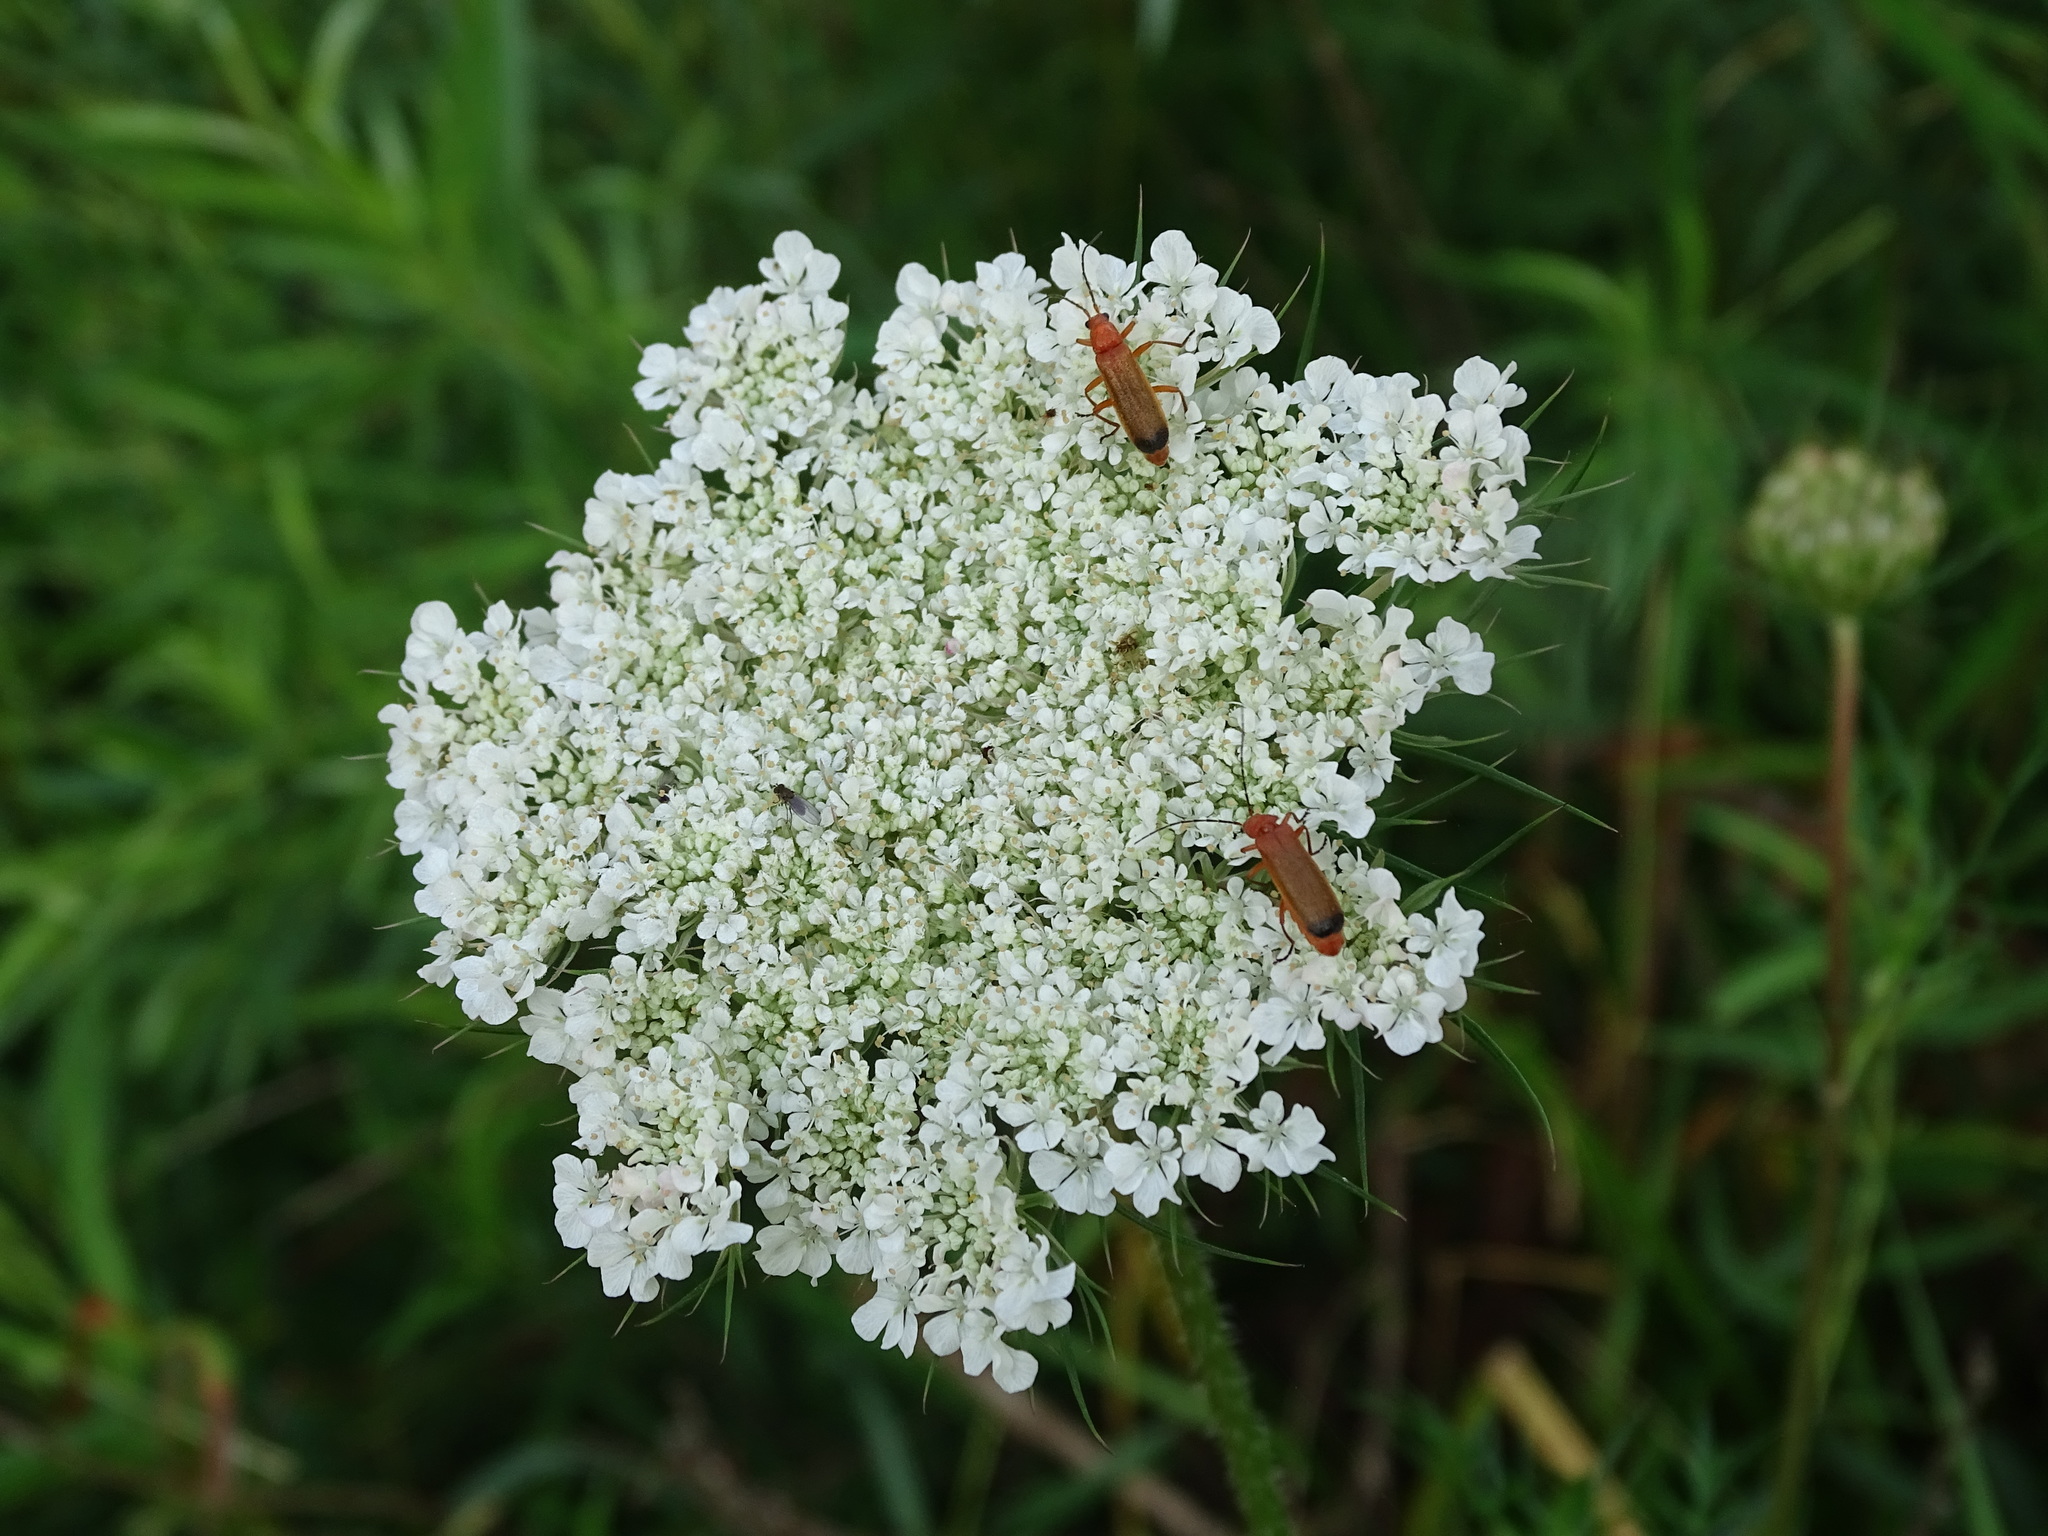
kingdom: Plantae
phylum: Tracheophyta
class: Magnoliopsida
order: Apiales
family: Apiaceae
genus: Daucus
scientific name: Daucus carota
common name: Wild carrot
